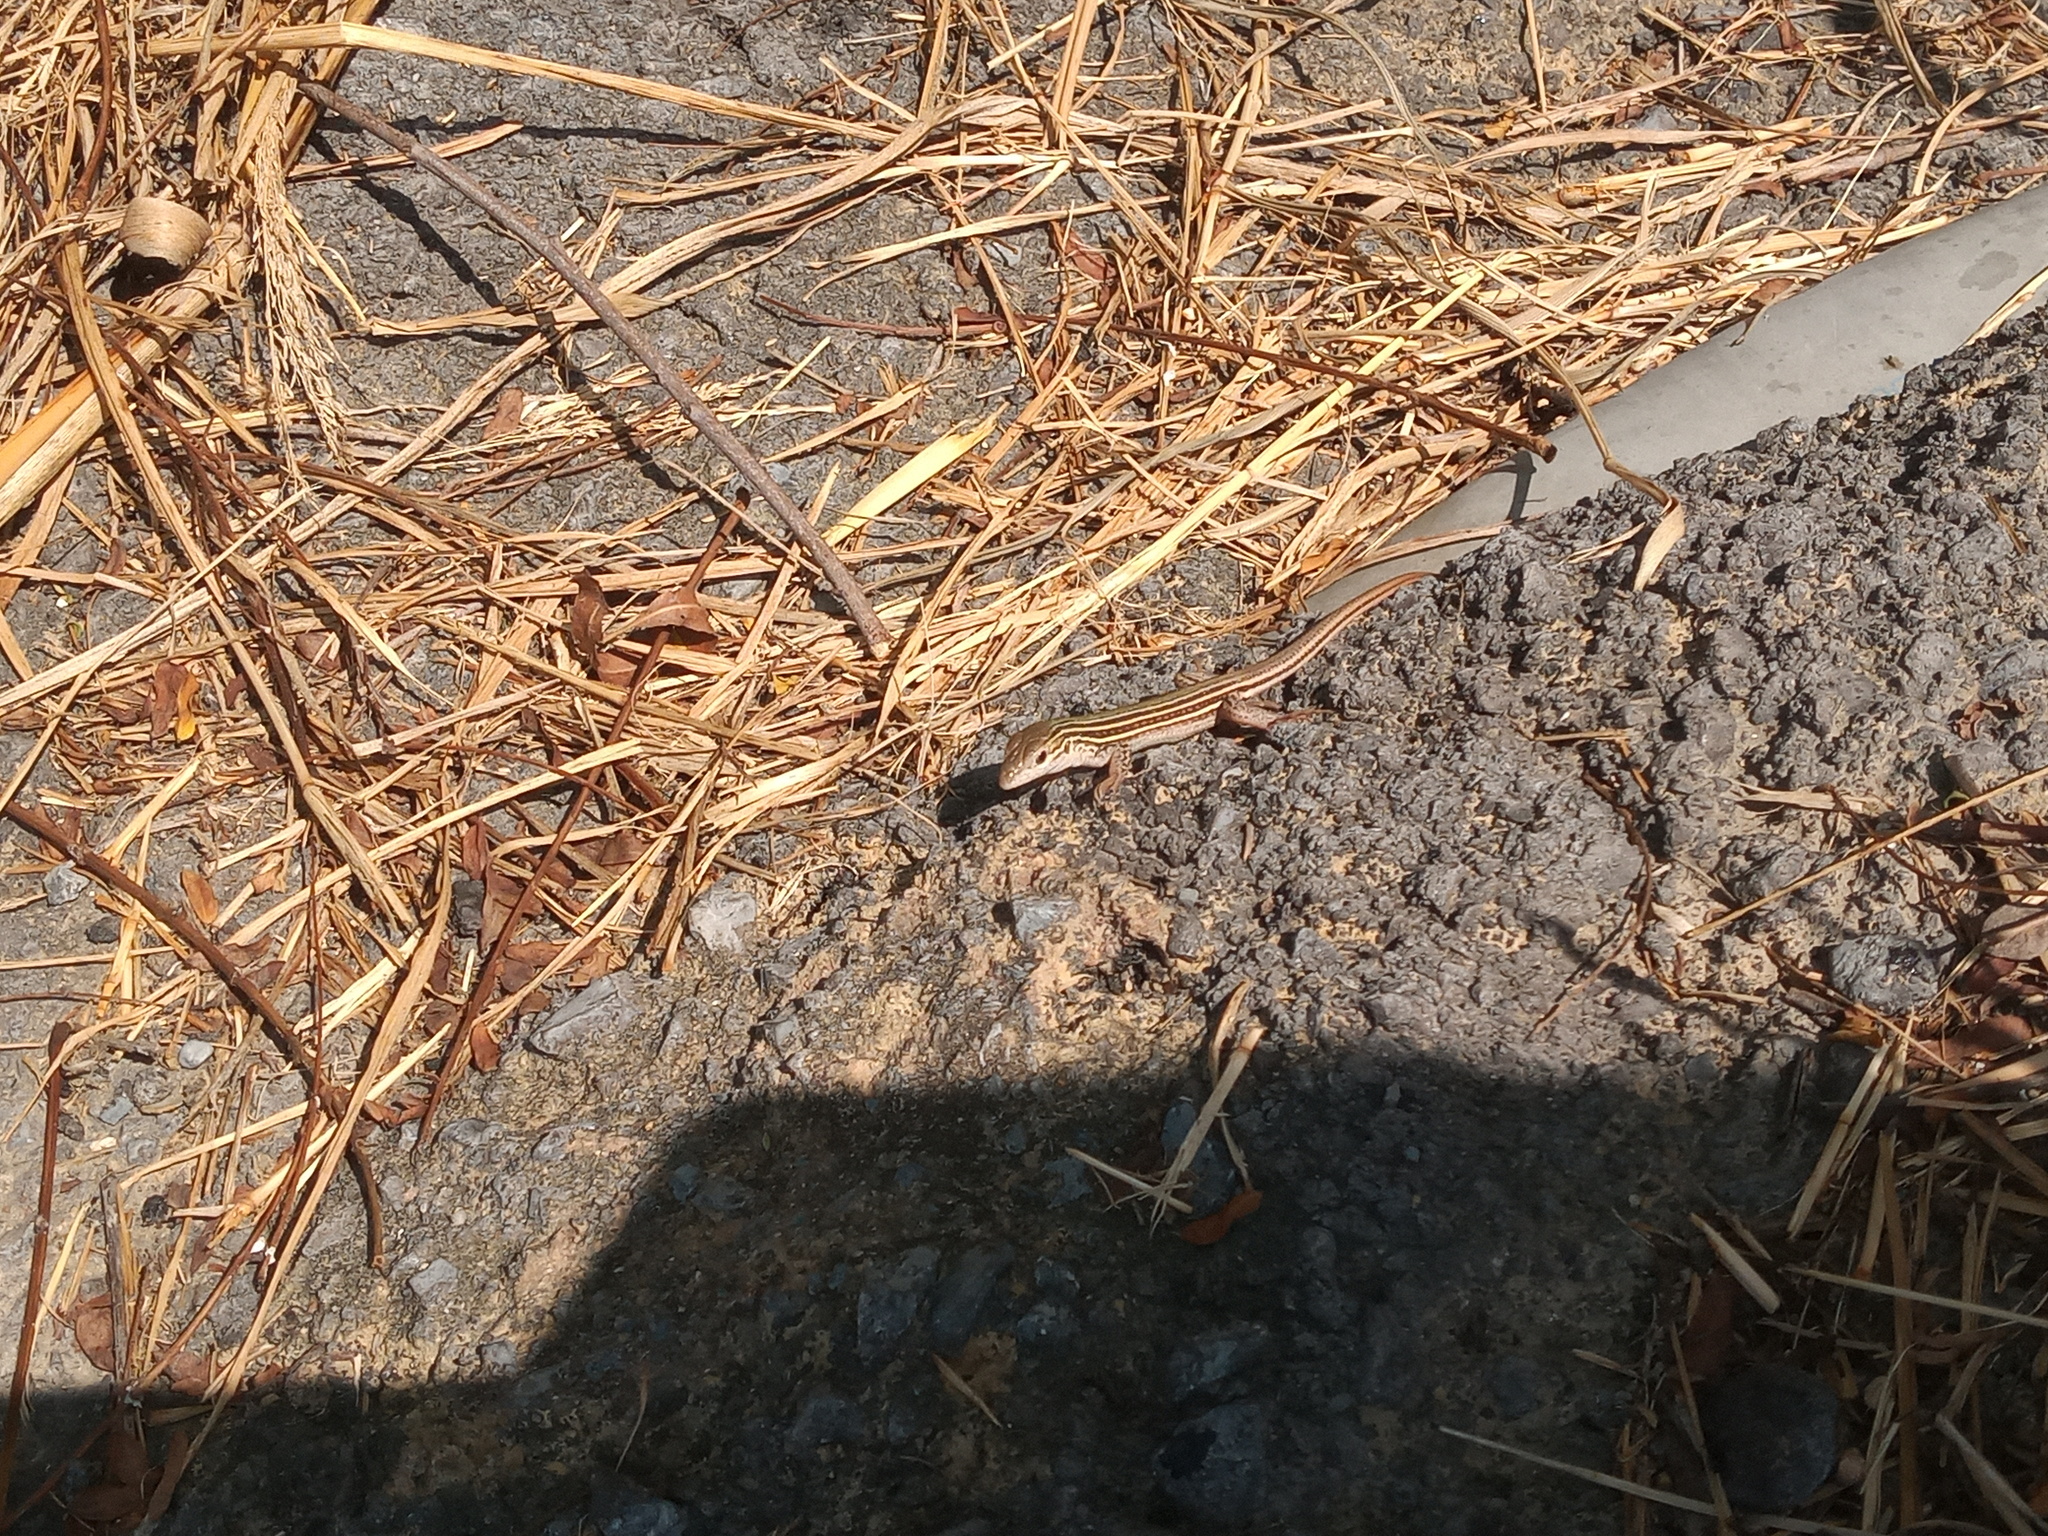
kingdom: Animalia
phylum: Chordata
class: Squamata
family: Teiidae
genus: Aspidoscelis
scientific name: Aspidoscelis gularis
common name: Eastern spotted whiptail
